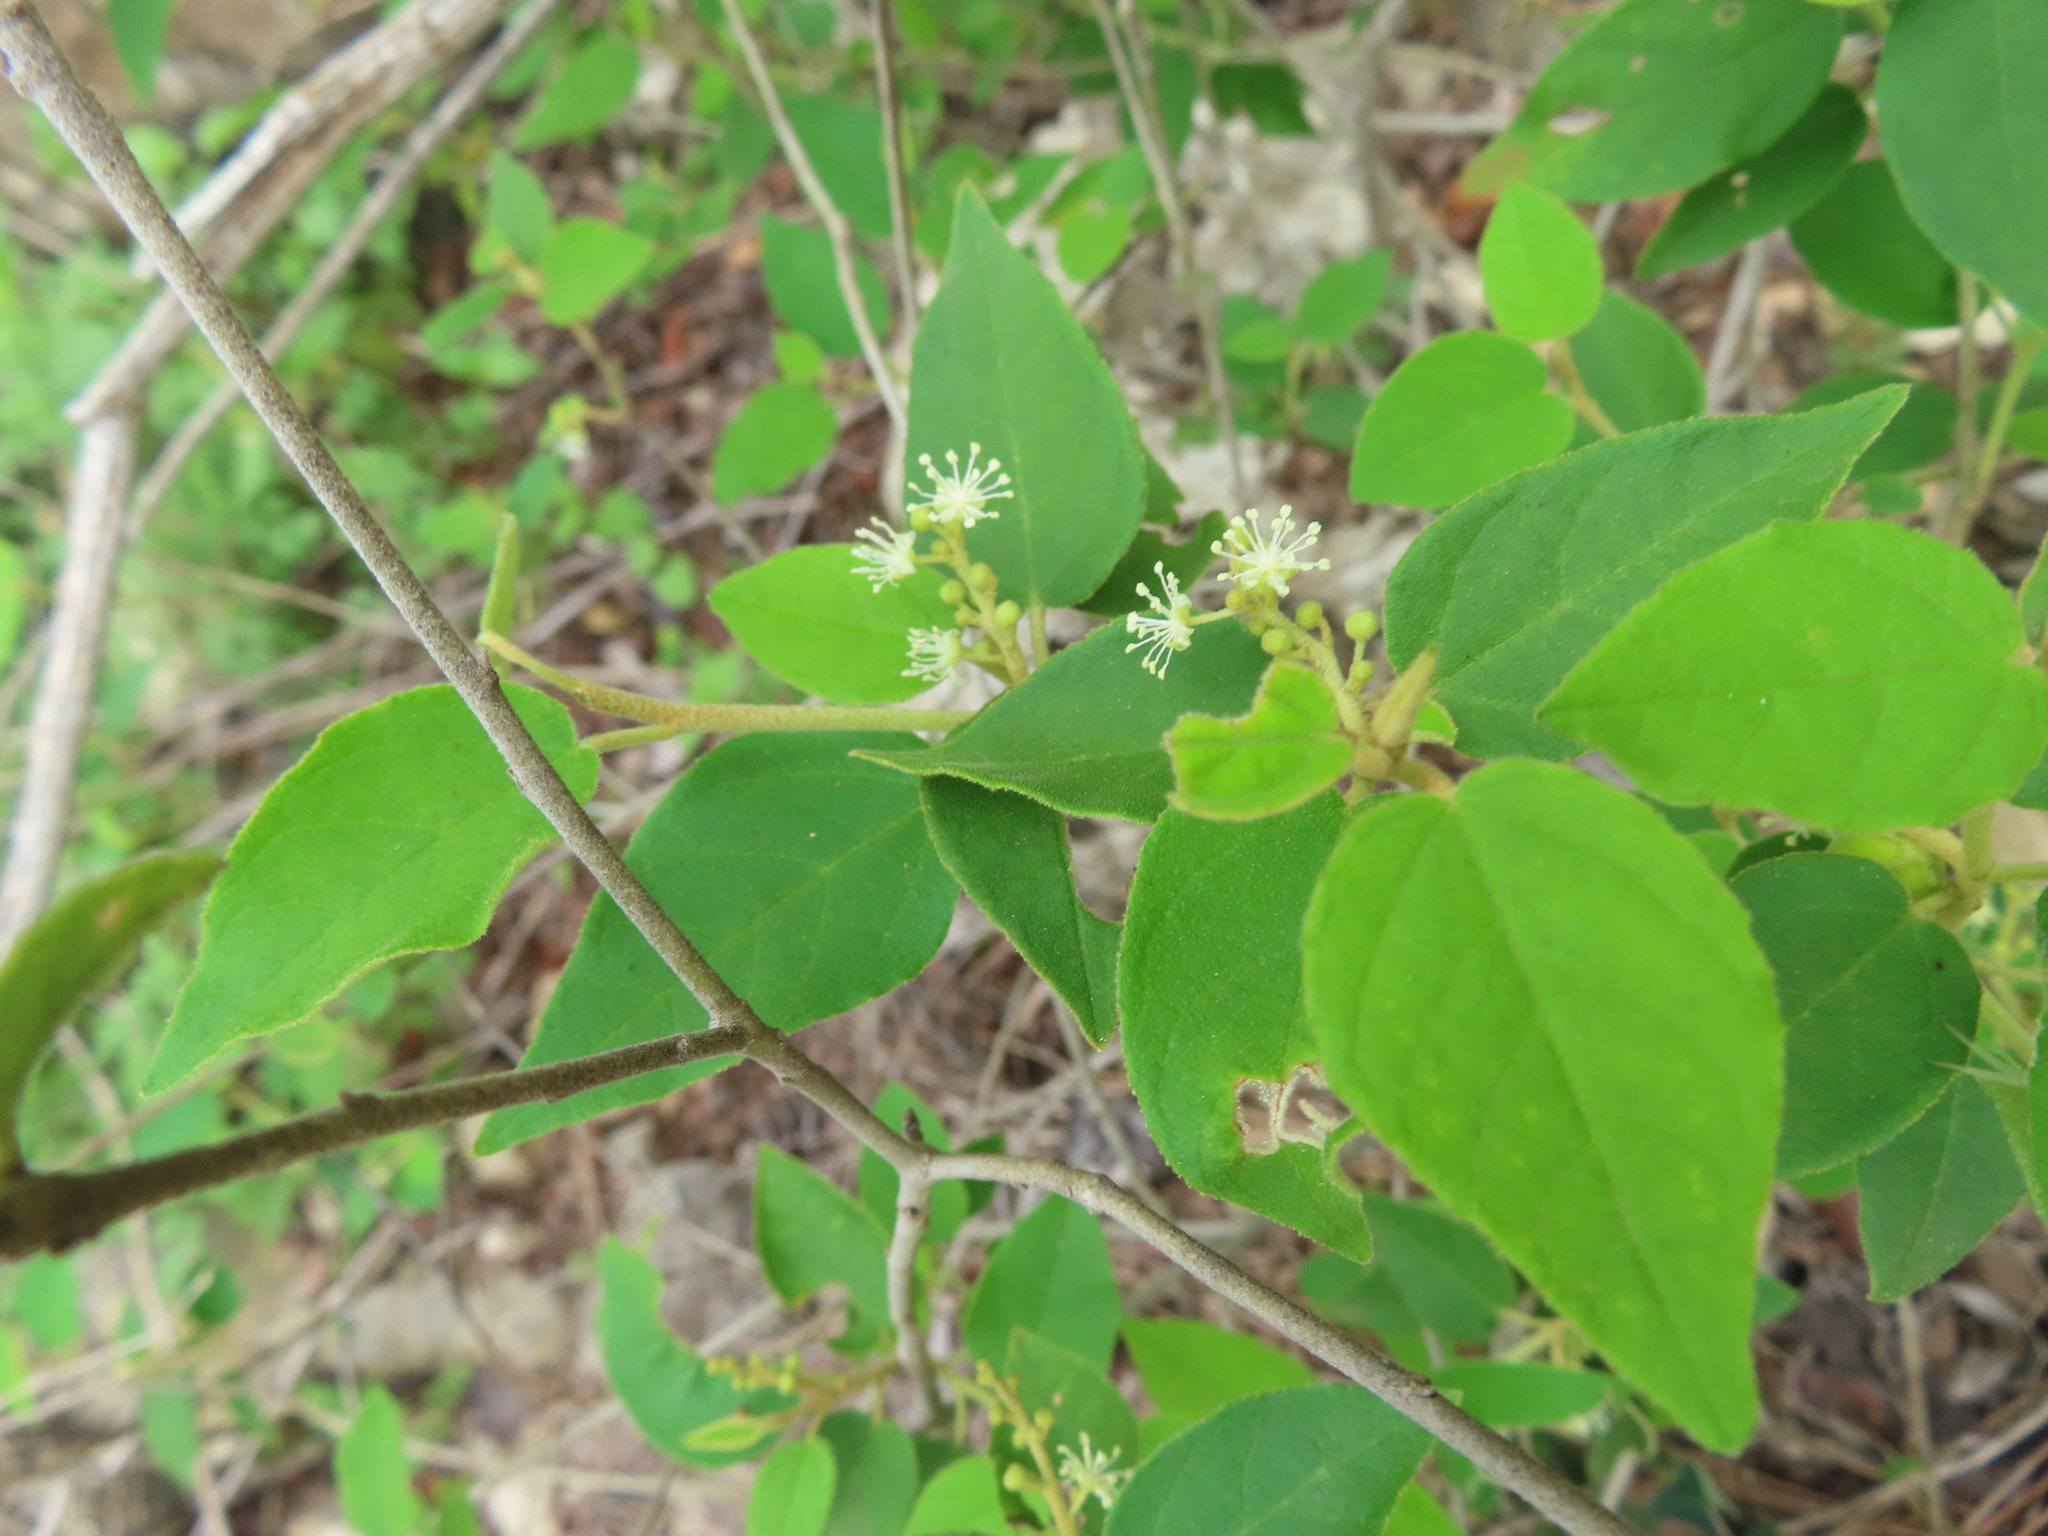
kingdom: Plantae
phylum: Tracheophyta
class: Magnoliopsida
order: Malpighiales
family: Euphorbiaceae
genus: Croton
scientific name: Croton fruticulosus
